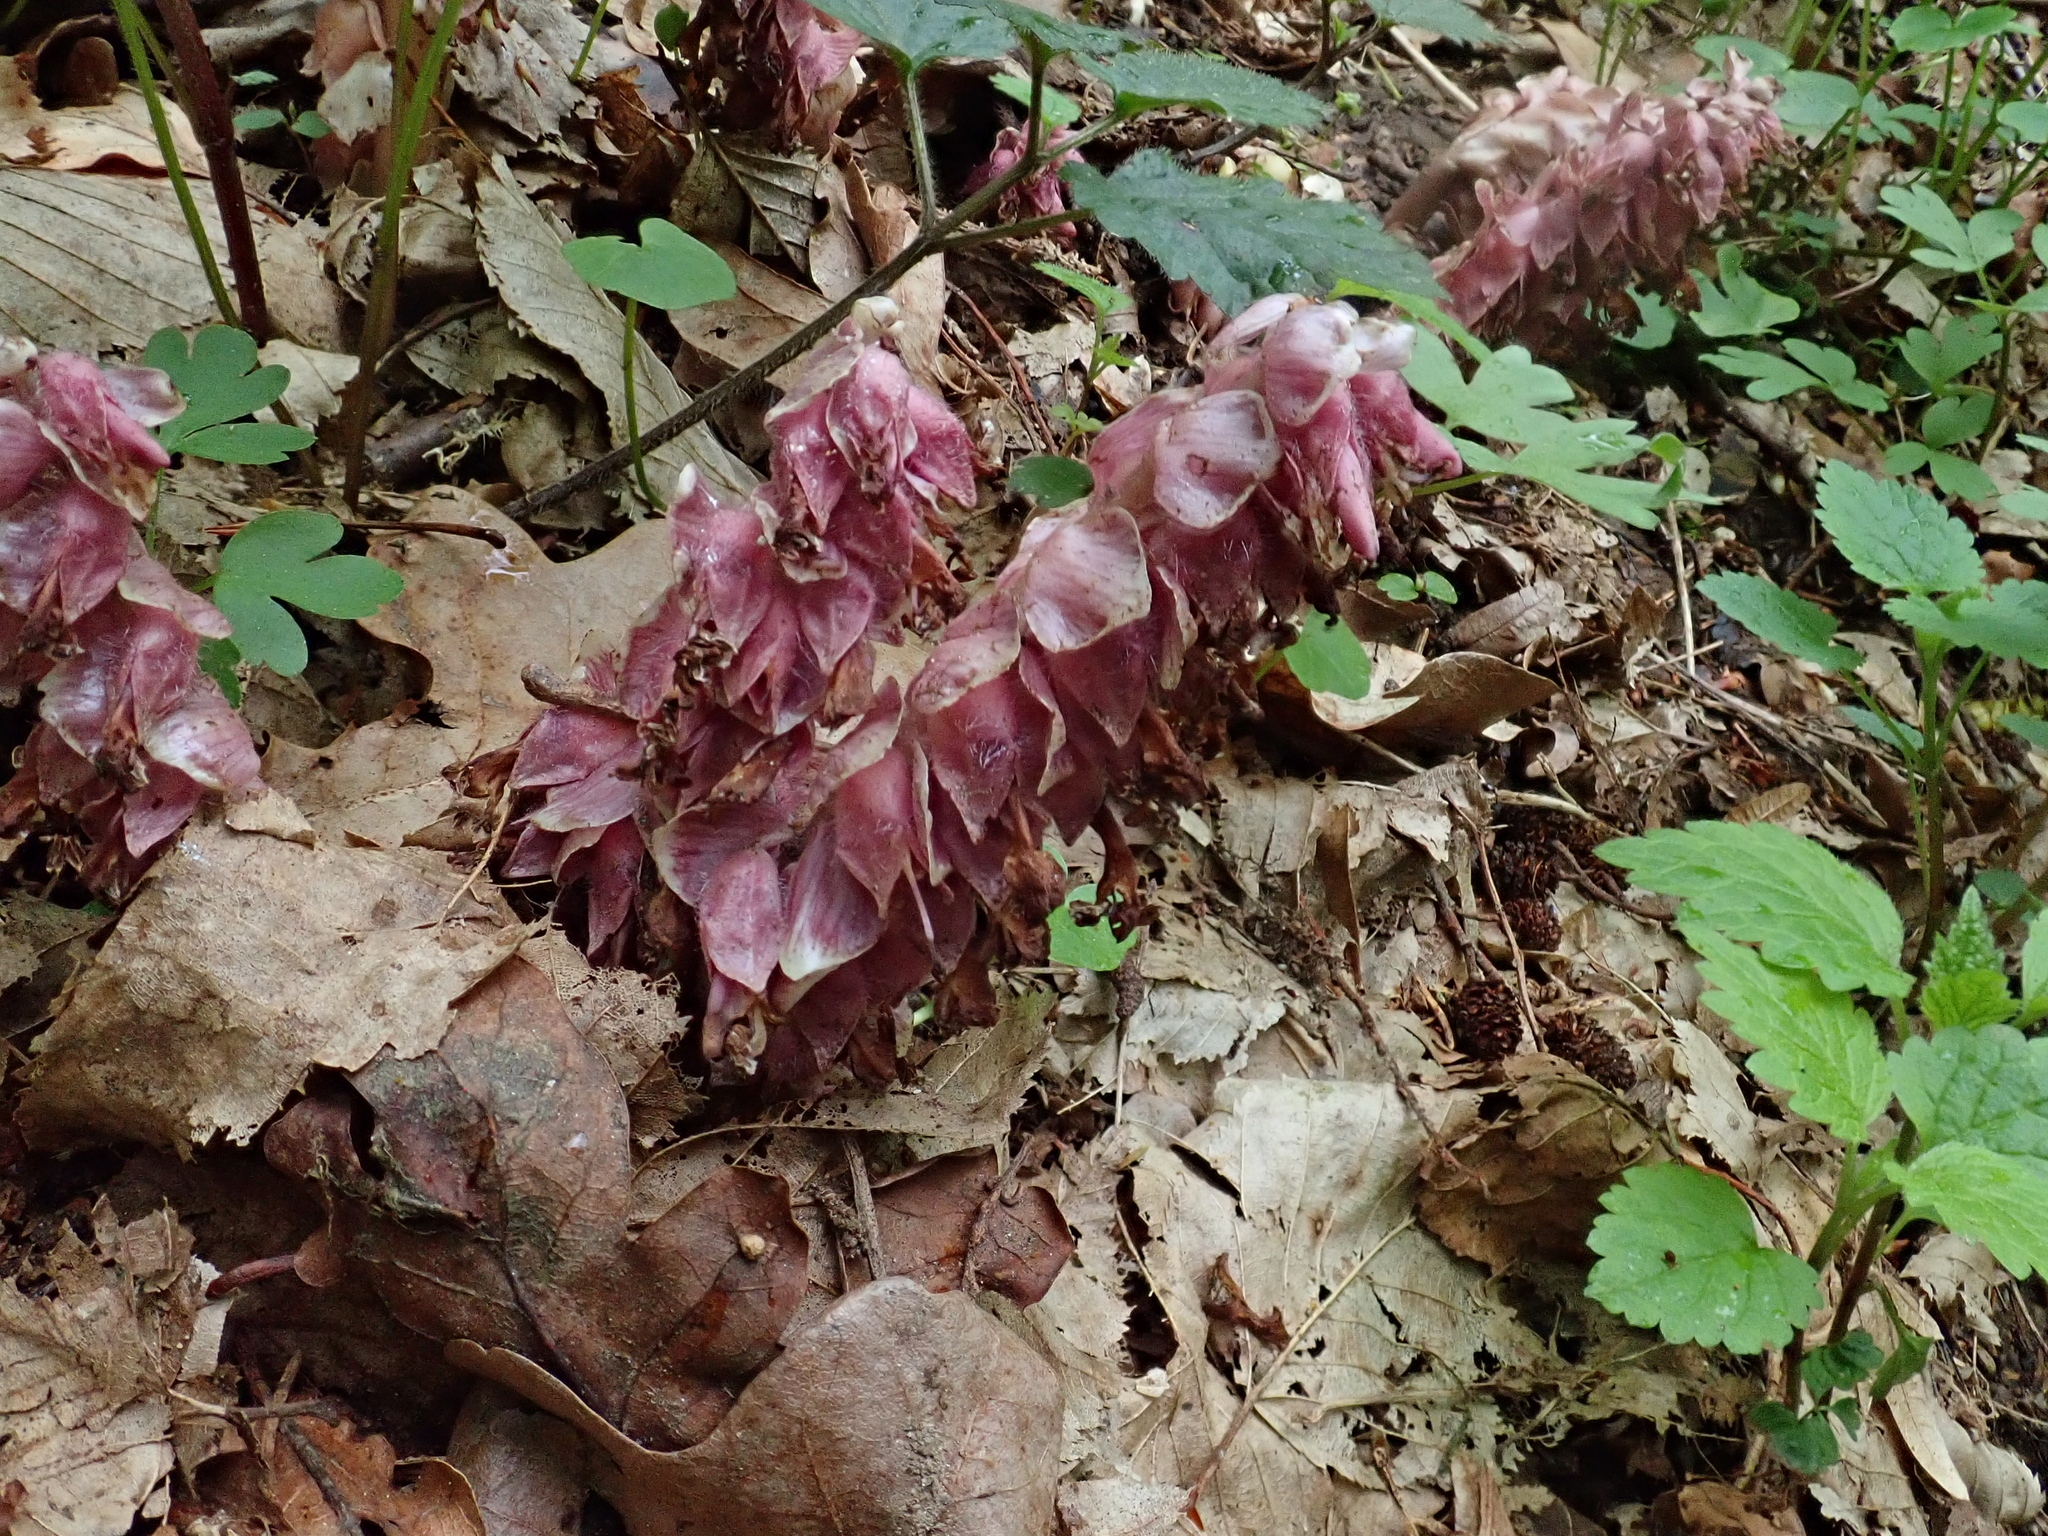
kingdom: Plantae
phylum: Tracheophyta
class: Magnoliopsida
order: Lamiales
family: Orobanchaceae
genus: Lathraea
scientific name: Lathraea squamaria
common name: Toothwort
